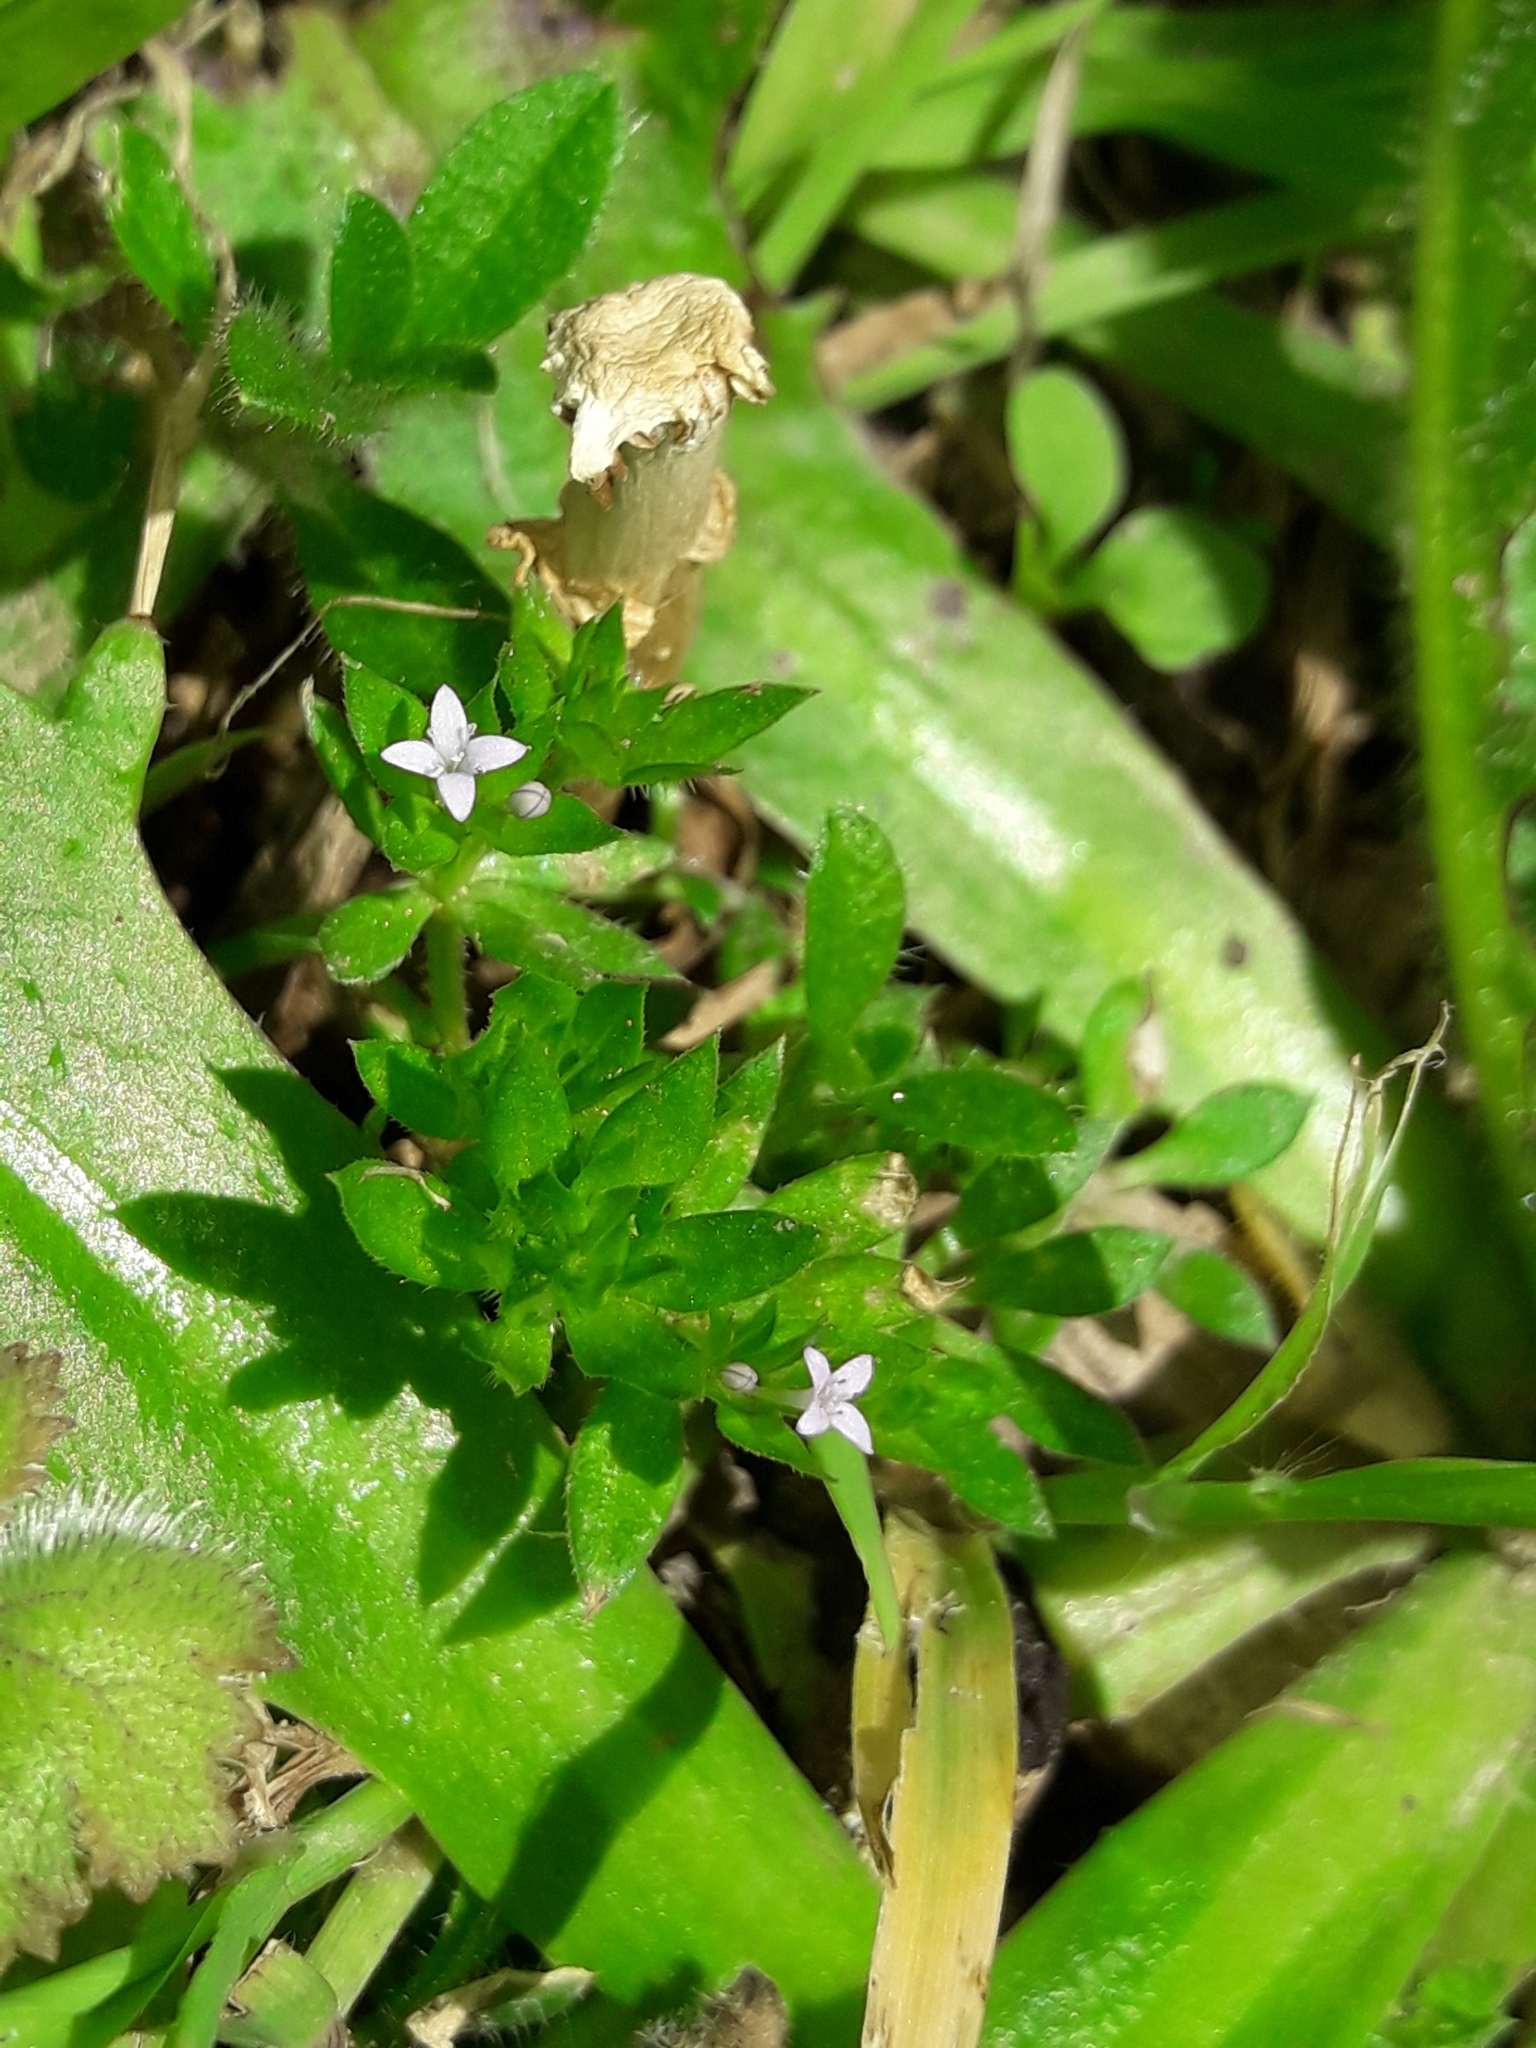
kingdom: Plantae
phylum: Tracheophyta
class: Magnoliopsida
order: Gentianales
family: Rubiaceae
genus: Sherardia
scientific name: Sherardia arvensis
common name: Field madder
